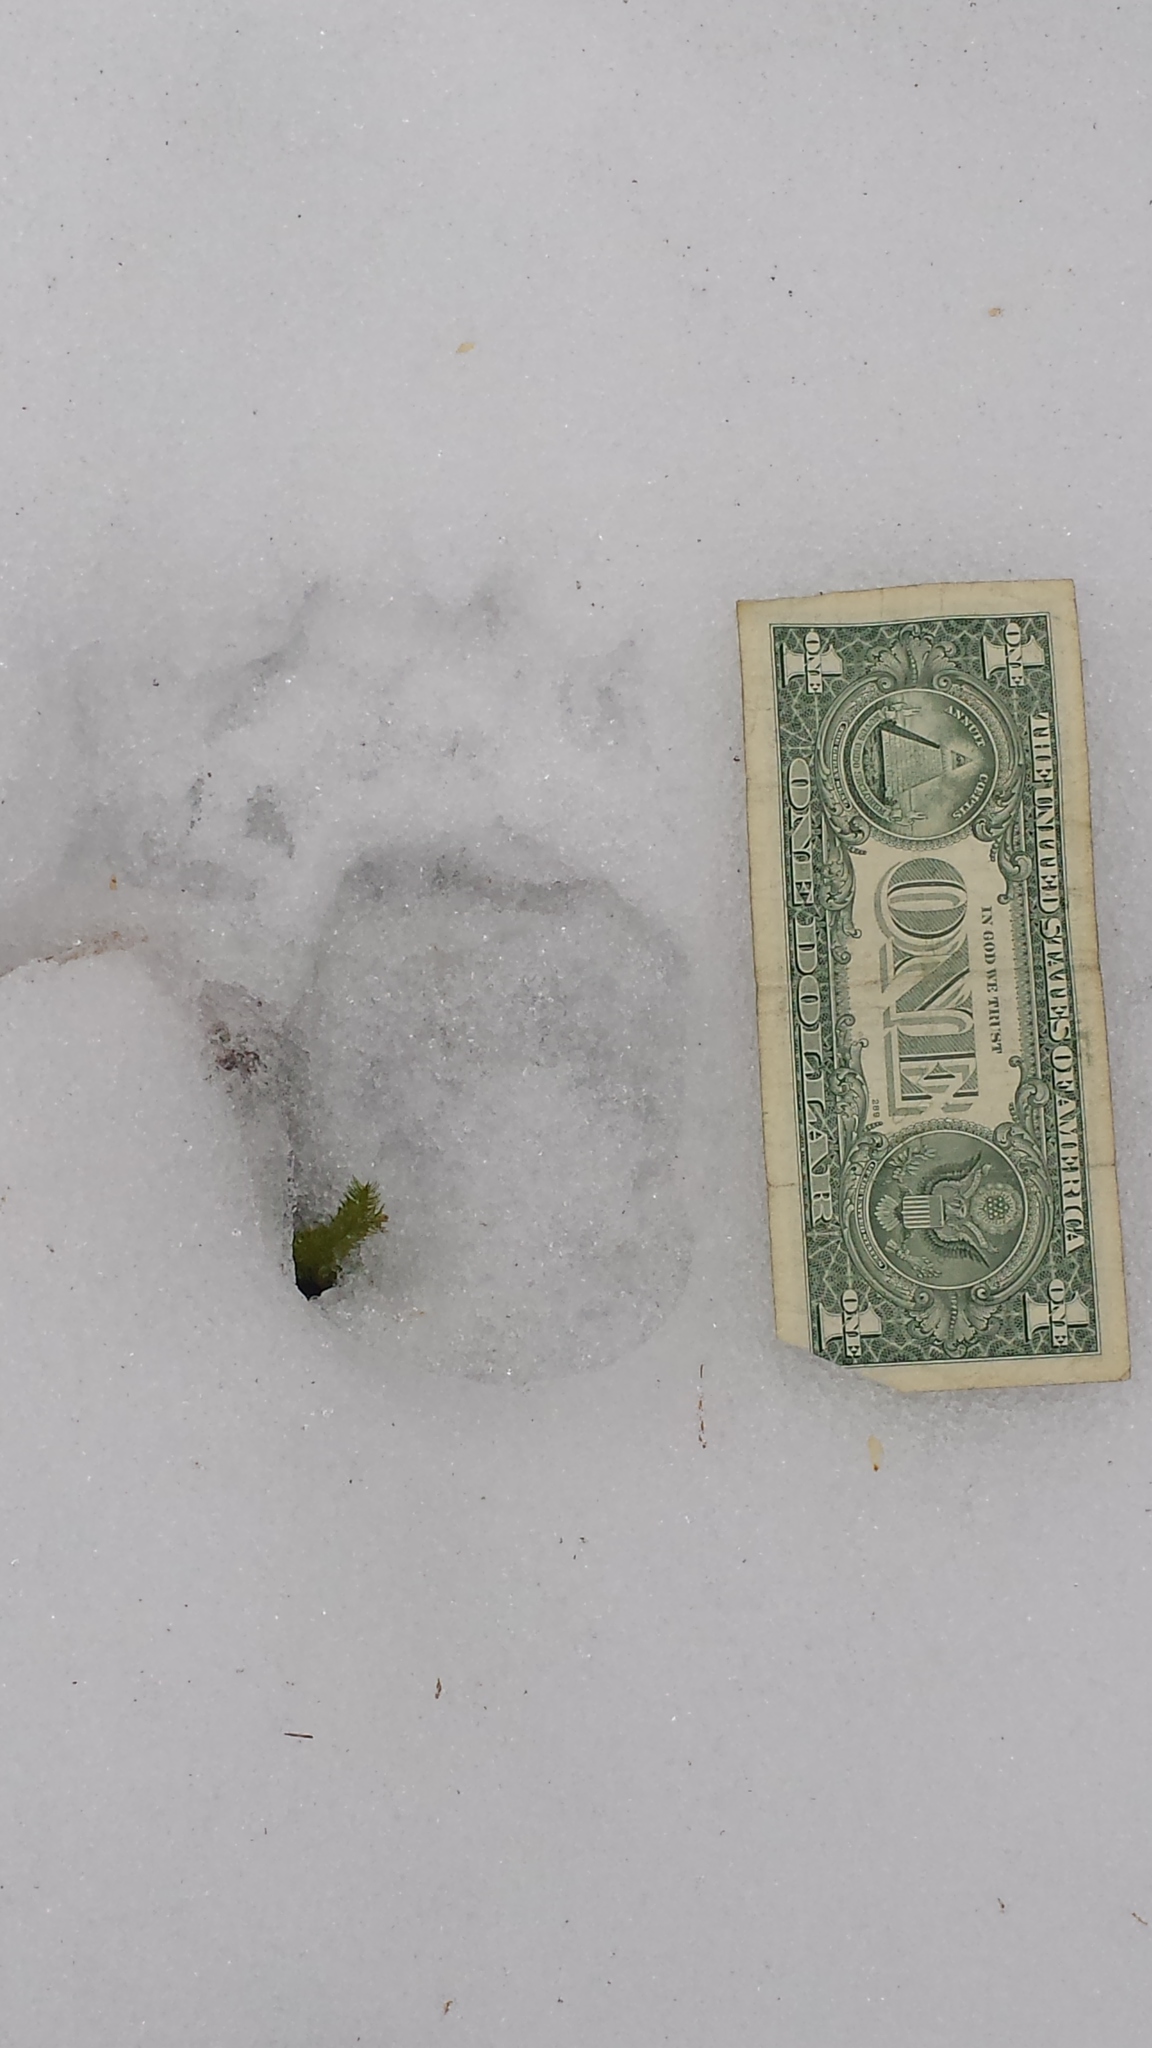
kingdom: Animalia
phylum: Chordata
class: Mammalia
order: Carnivora
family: Ursidae
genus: Ursus
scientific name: Ursus americanus
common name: American black bear
